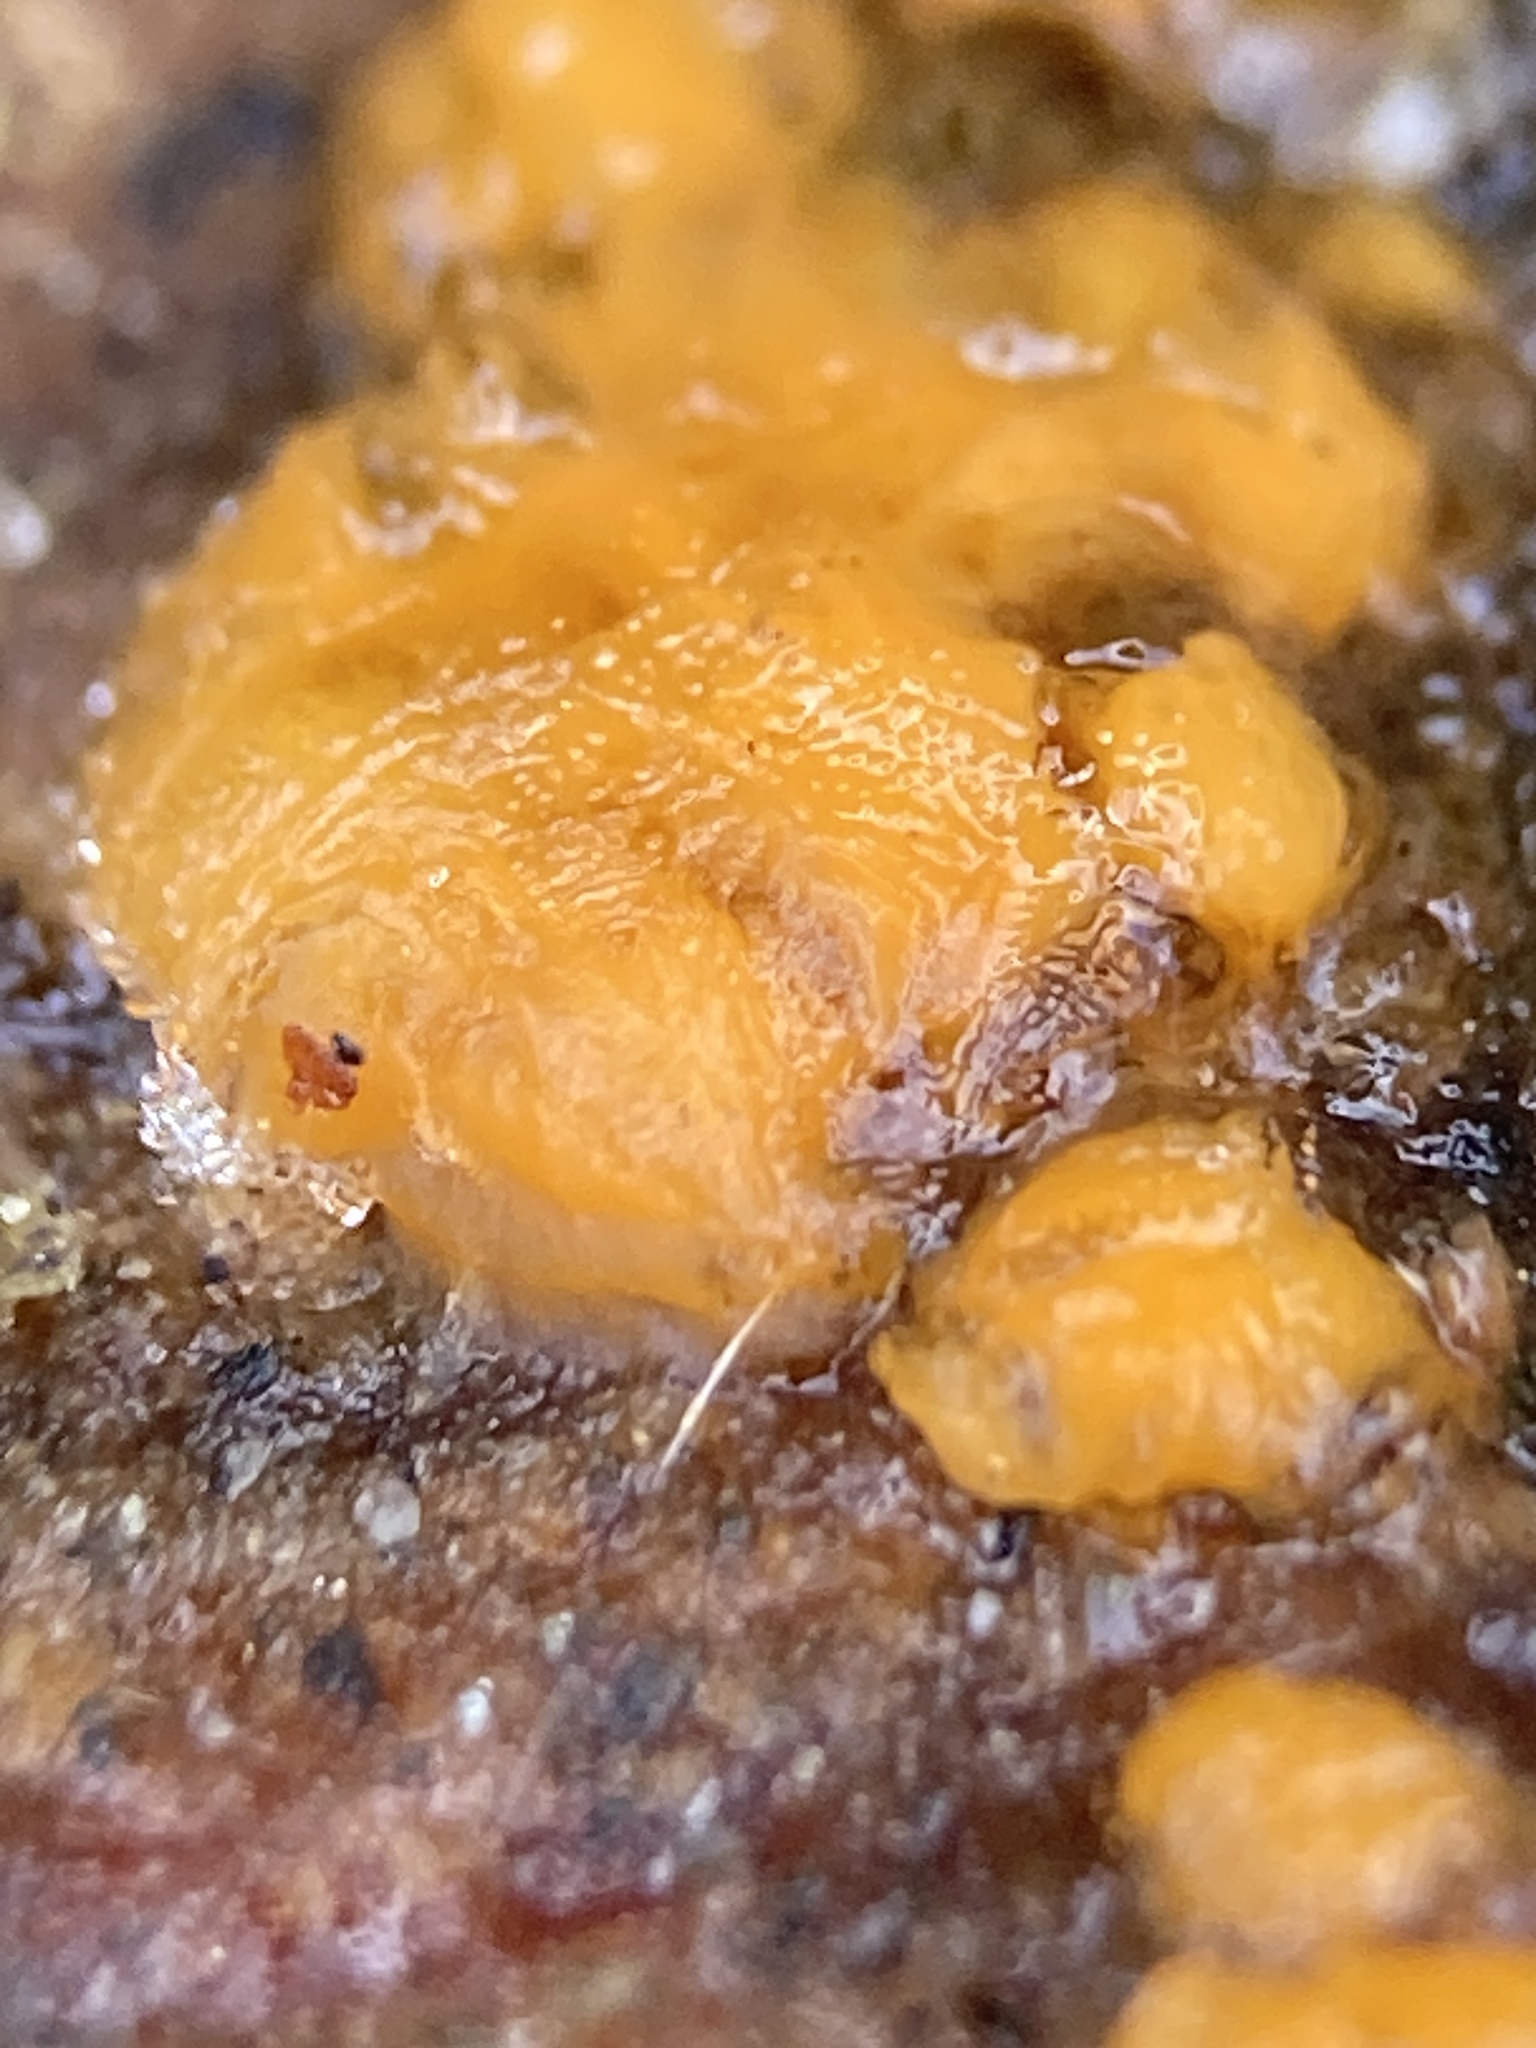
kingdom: Fungi
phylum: Basidiomycota
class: Dacrymycetes
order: Dacrymycetales
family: Dacrymycetaceae
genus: Dacrymyces
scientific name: Dacrymyces stillatus
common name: Common jelly spot
